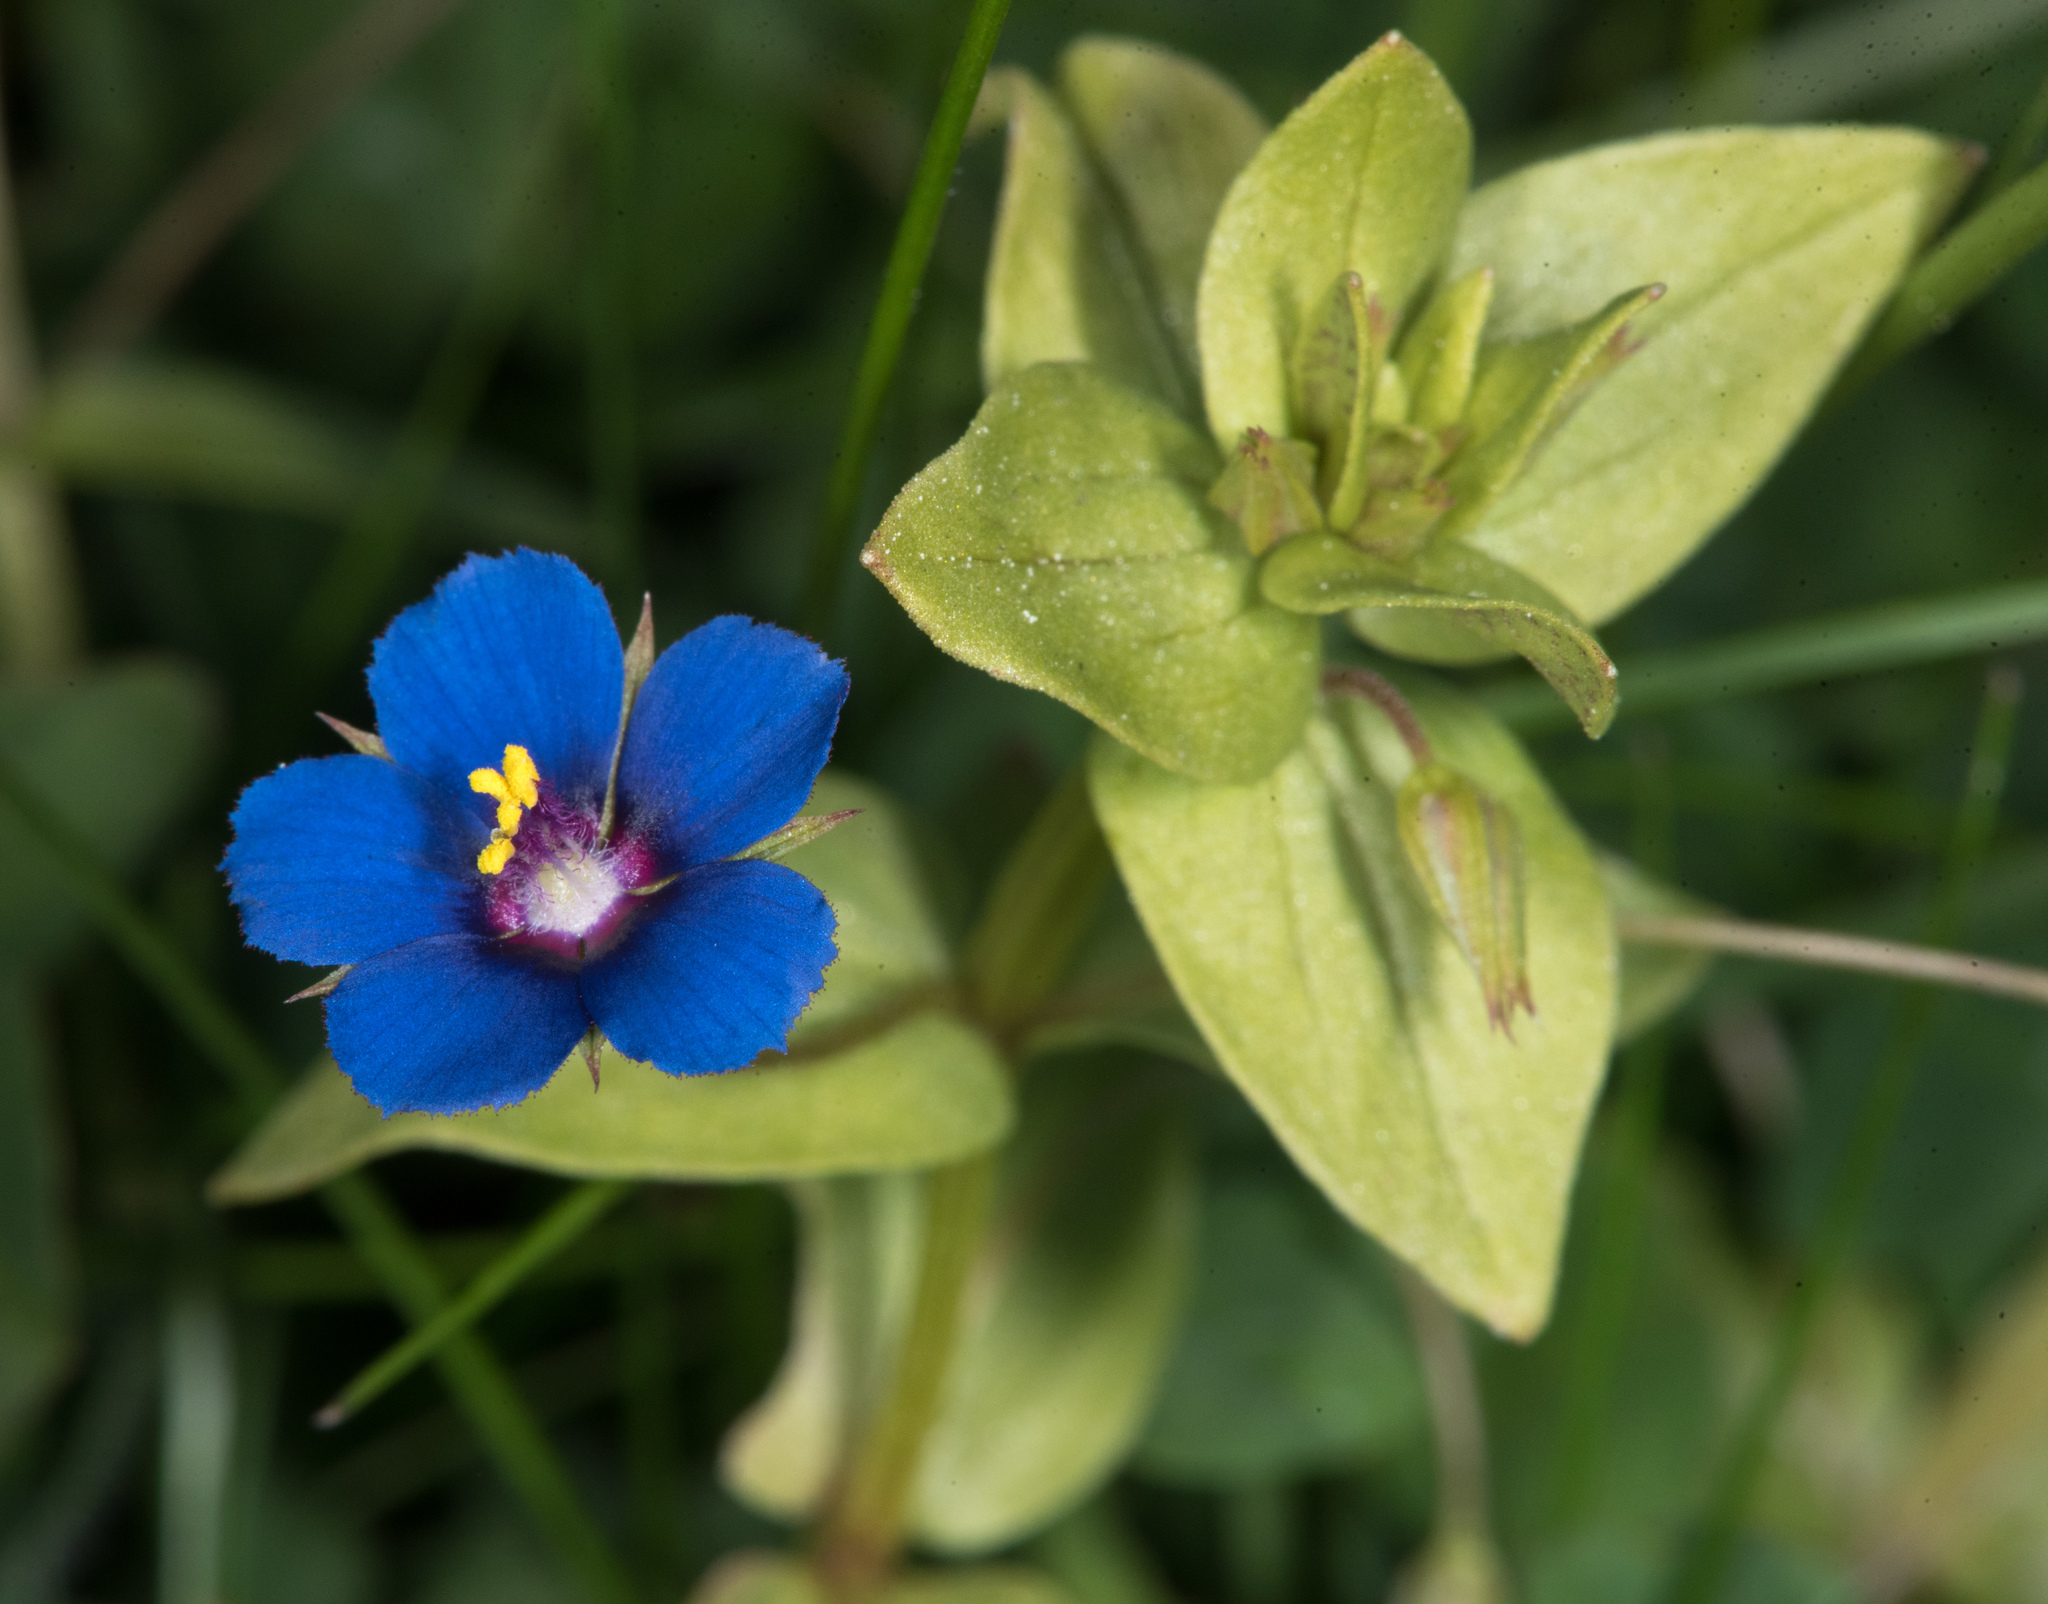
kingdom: Plantae
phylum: Tracheophyta
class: Magnoliopsida
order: Ericales
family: Primulaceae
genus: Lysimachia
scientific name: Lysimachia arvensis
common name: Scarlet pimpernel
